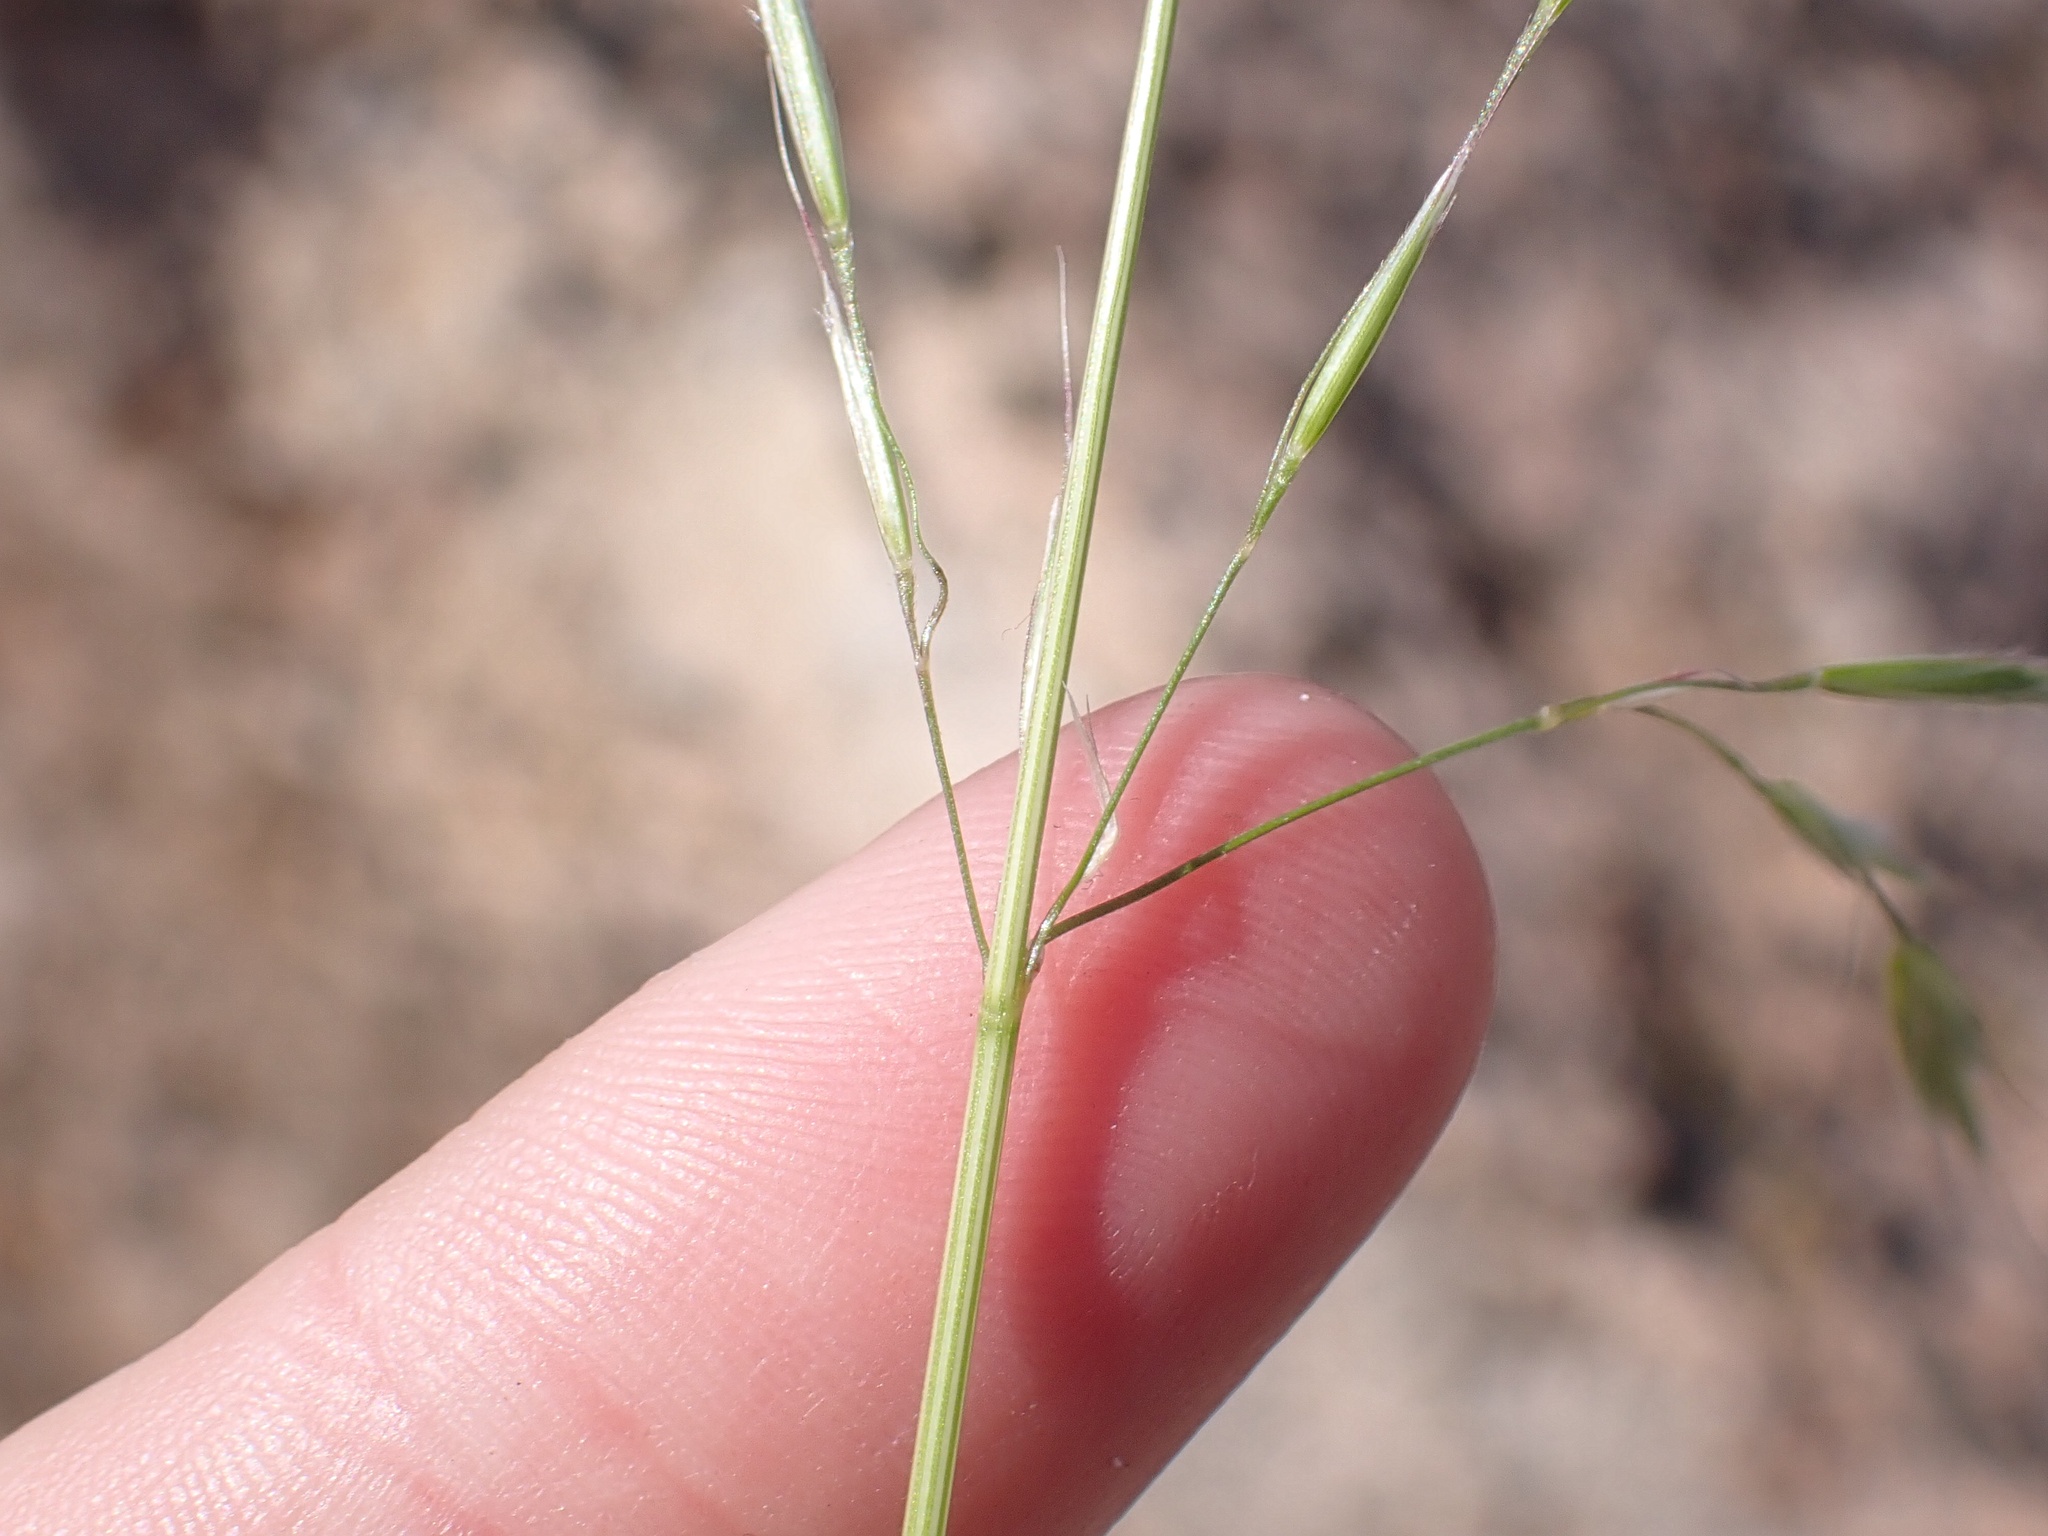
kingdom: Plantae
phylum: Tracheophyta
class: Liliopsida
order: Poales
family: Poaceae
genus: Bromus
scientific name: Bromus berteroanus
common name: Chilean chess
